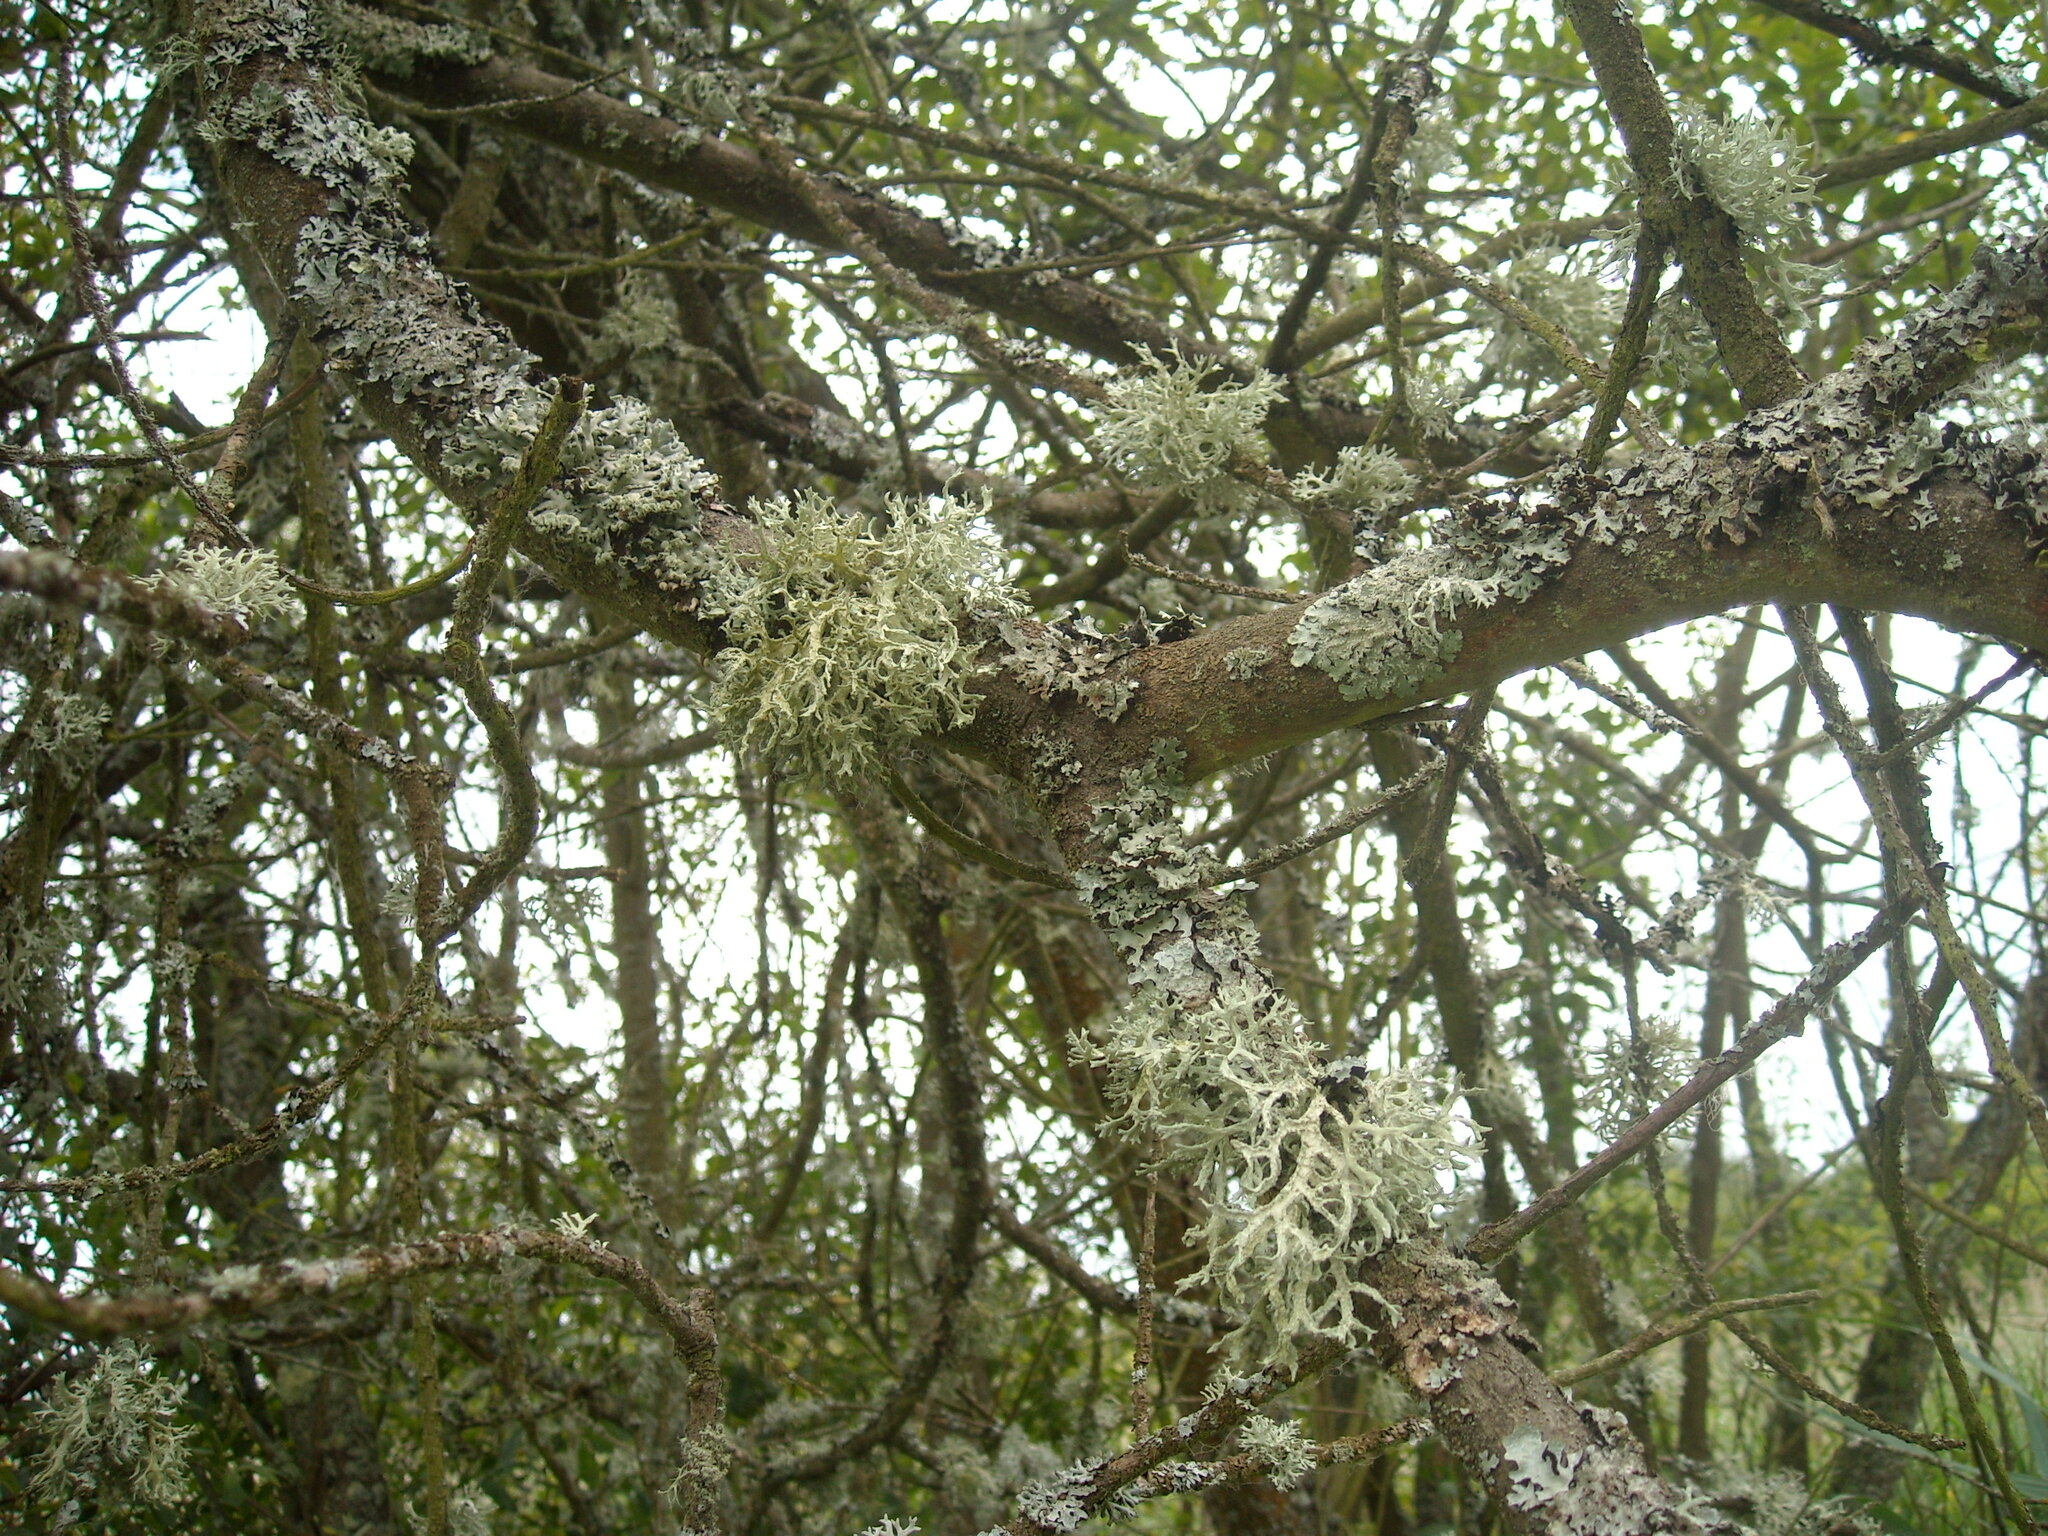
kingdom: Fungi
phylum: Ascomycota
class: Lecanoromycetes
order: Lecanorales
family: Parmeliaceae
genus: Evernia
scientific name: Evernia prunastri
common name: Oak moss
